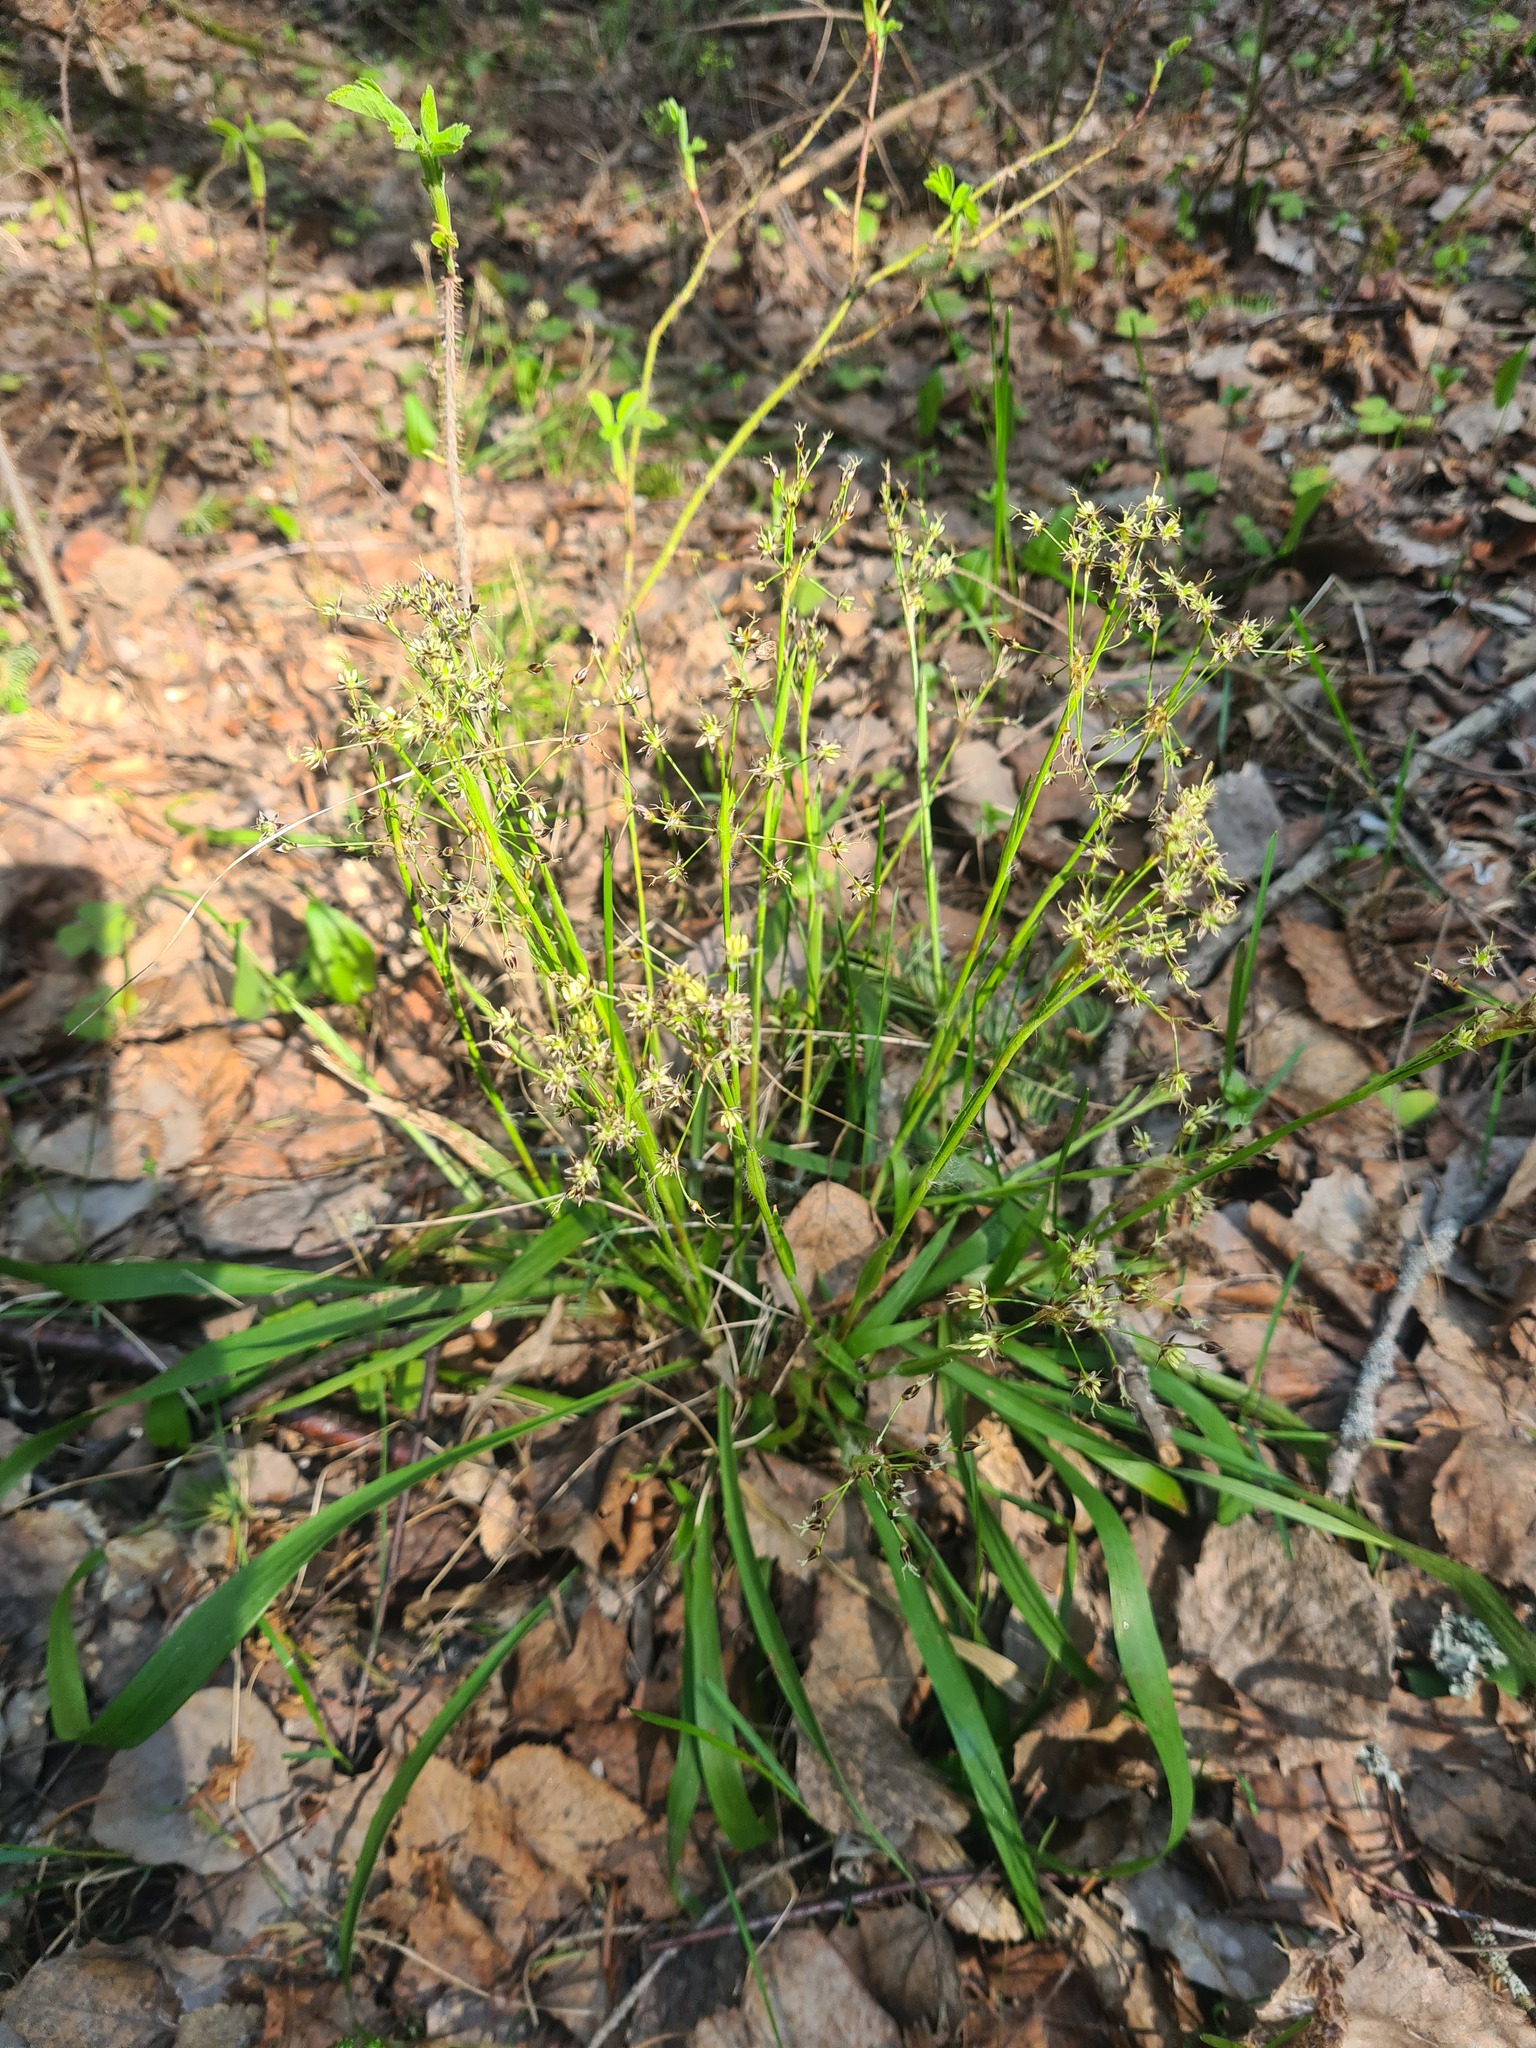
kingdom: Plantae
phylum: Tracheophyta
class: Liliopsida
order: Poales
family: Juncaceae
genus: Luzula
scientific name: Luzula pilosa
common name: Hairy wood-rush
